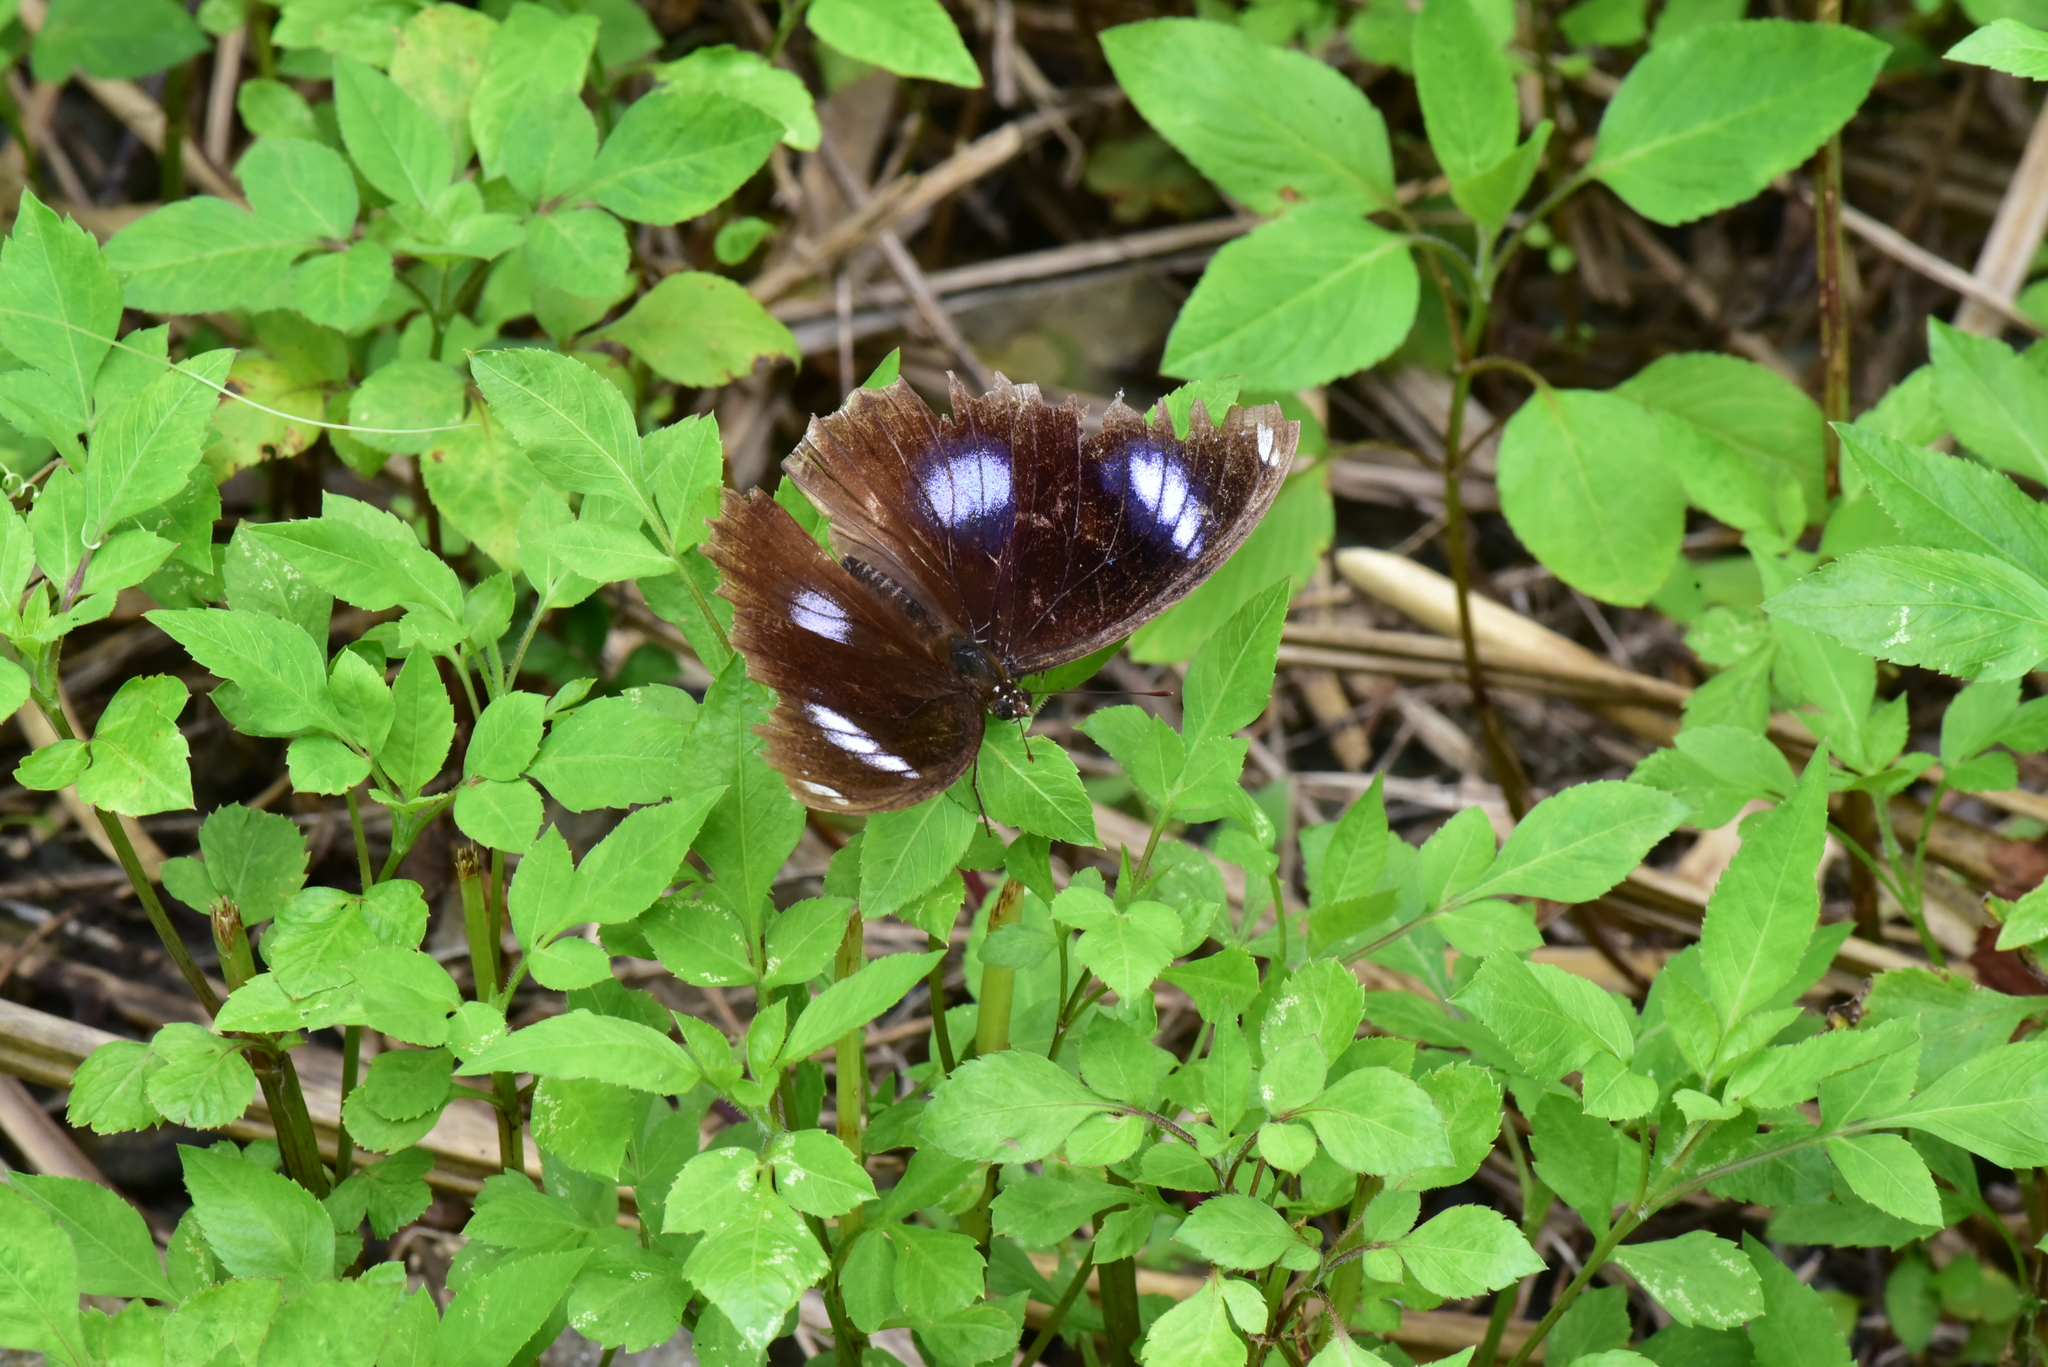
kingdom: Animalia
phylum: Arthropoda
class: Insecta
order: Lepidoptera
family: Nymphalidae
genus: Hypolimnas
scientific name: Hypolimnas bolina
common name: Great eggfly
